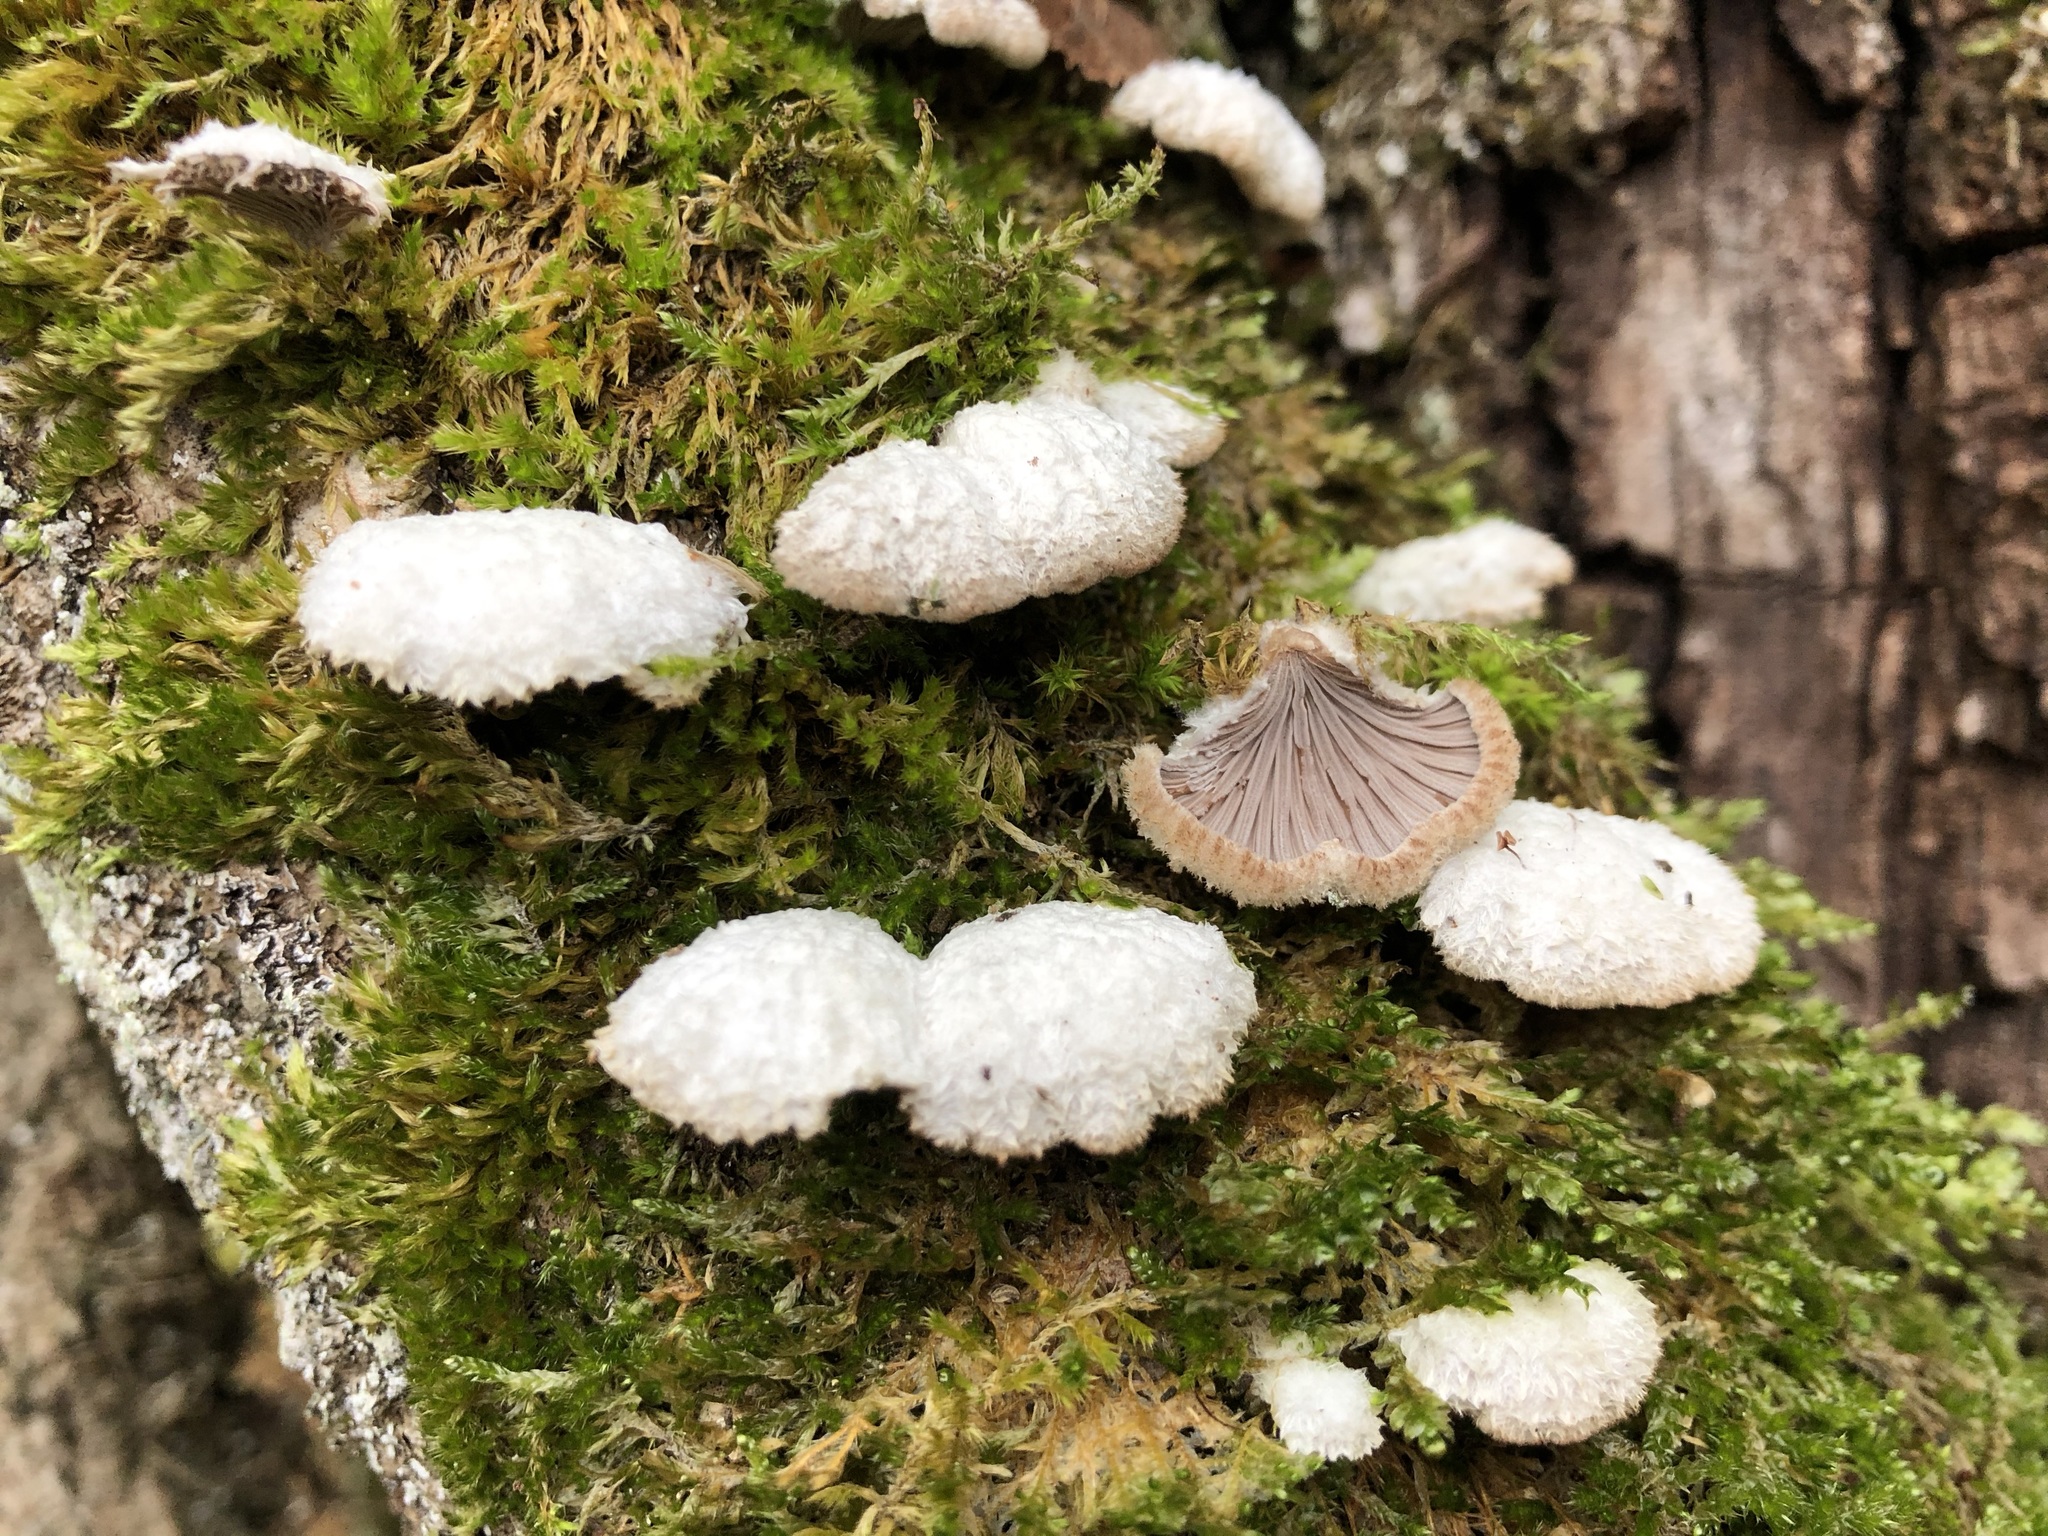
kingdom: Fungi
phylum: Basidiomycota
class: Agaricomycetes
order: Agaricales
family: Schizophyllaceae
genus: Schizophyllum
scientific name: Schizophyllum commune
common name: Common porecrust
